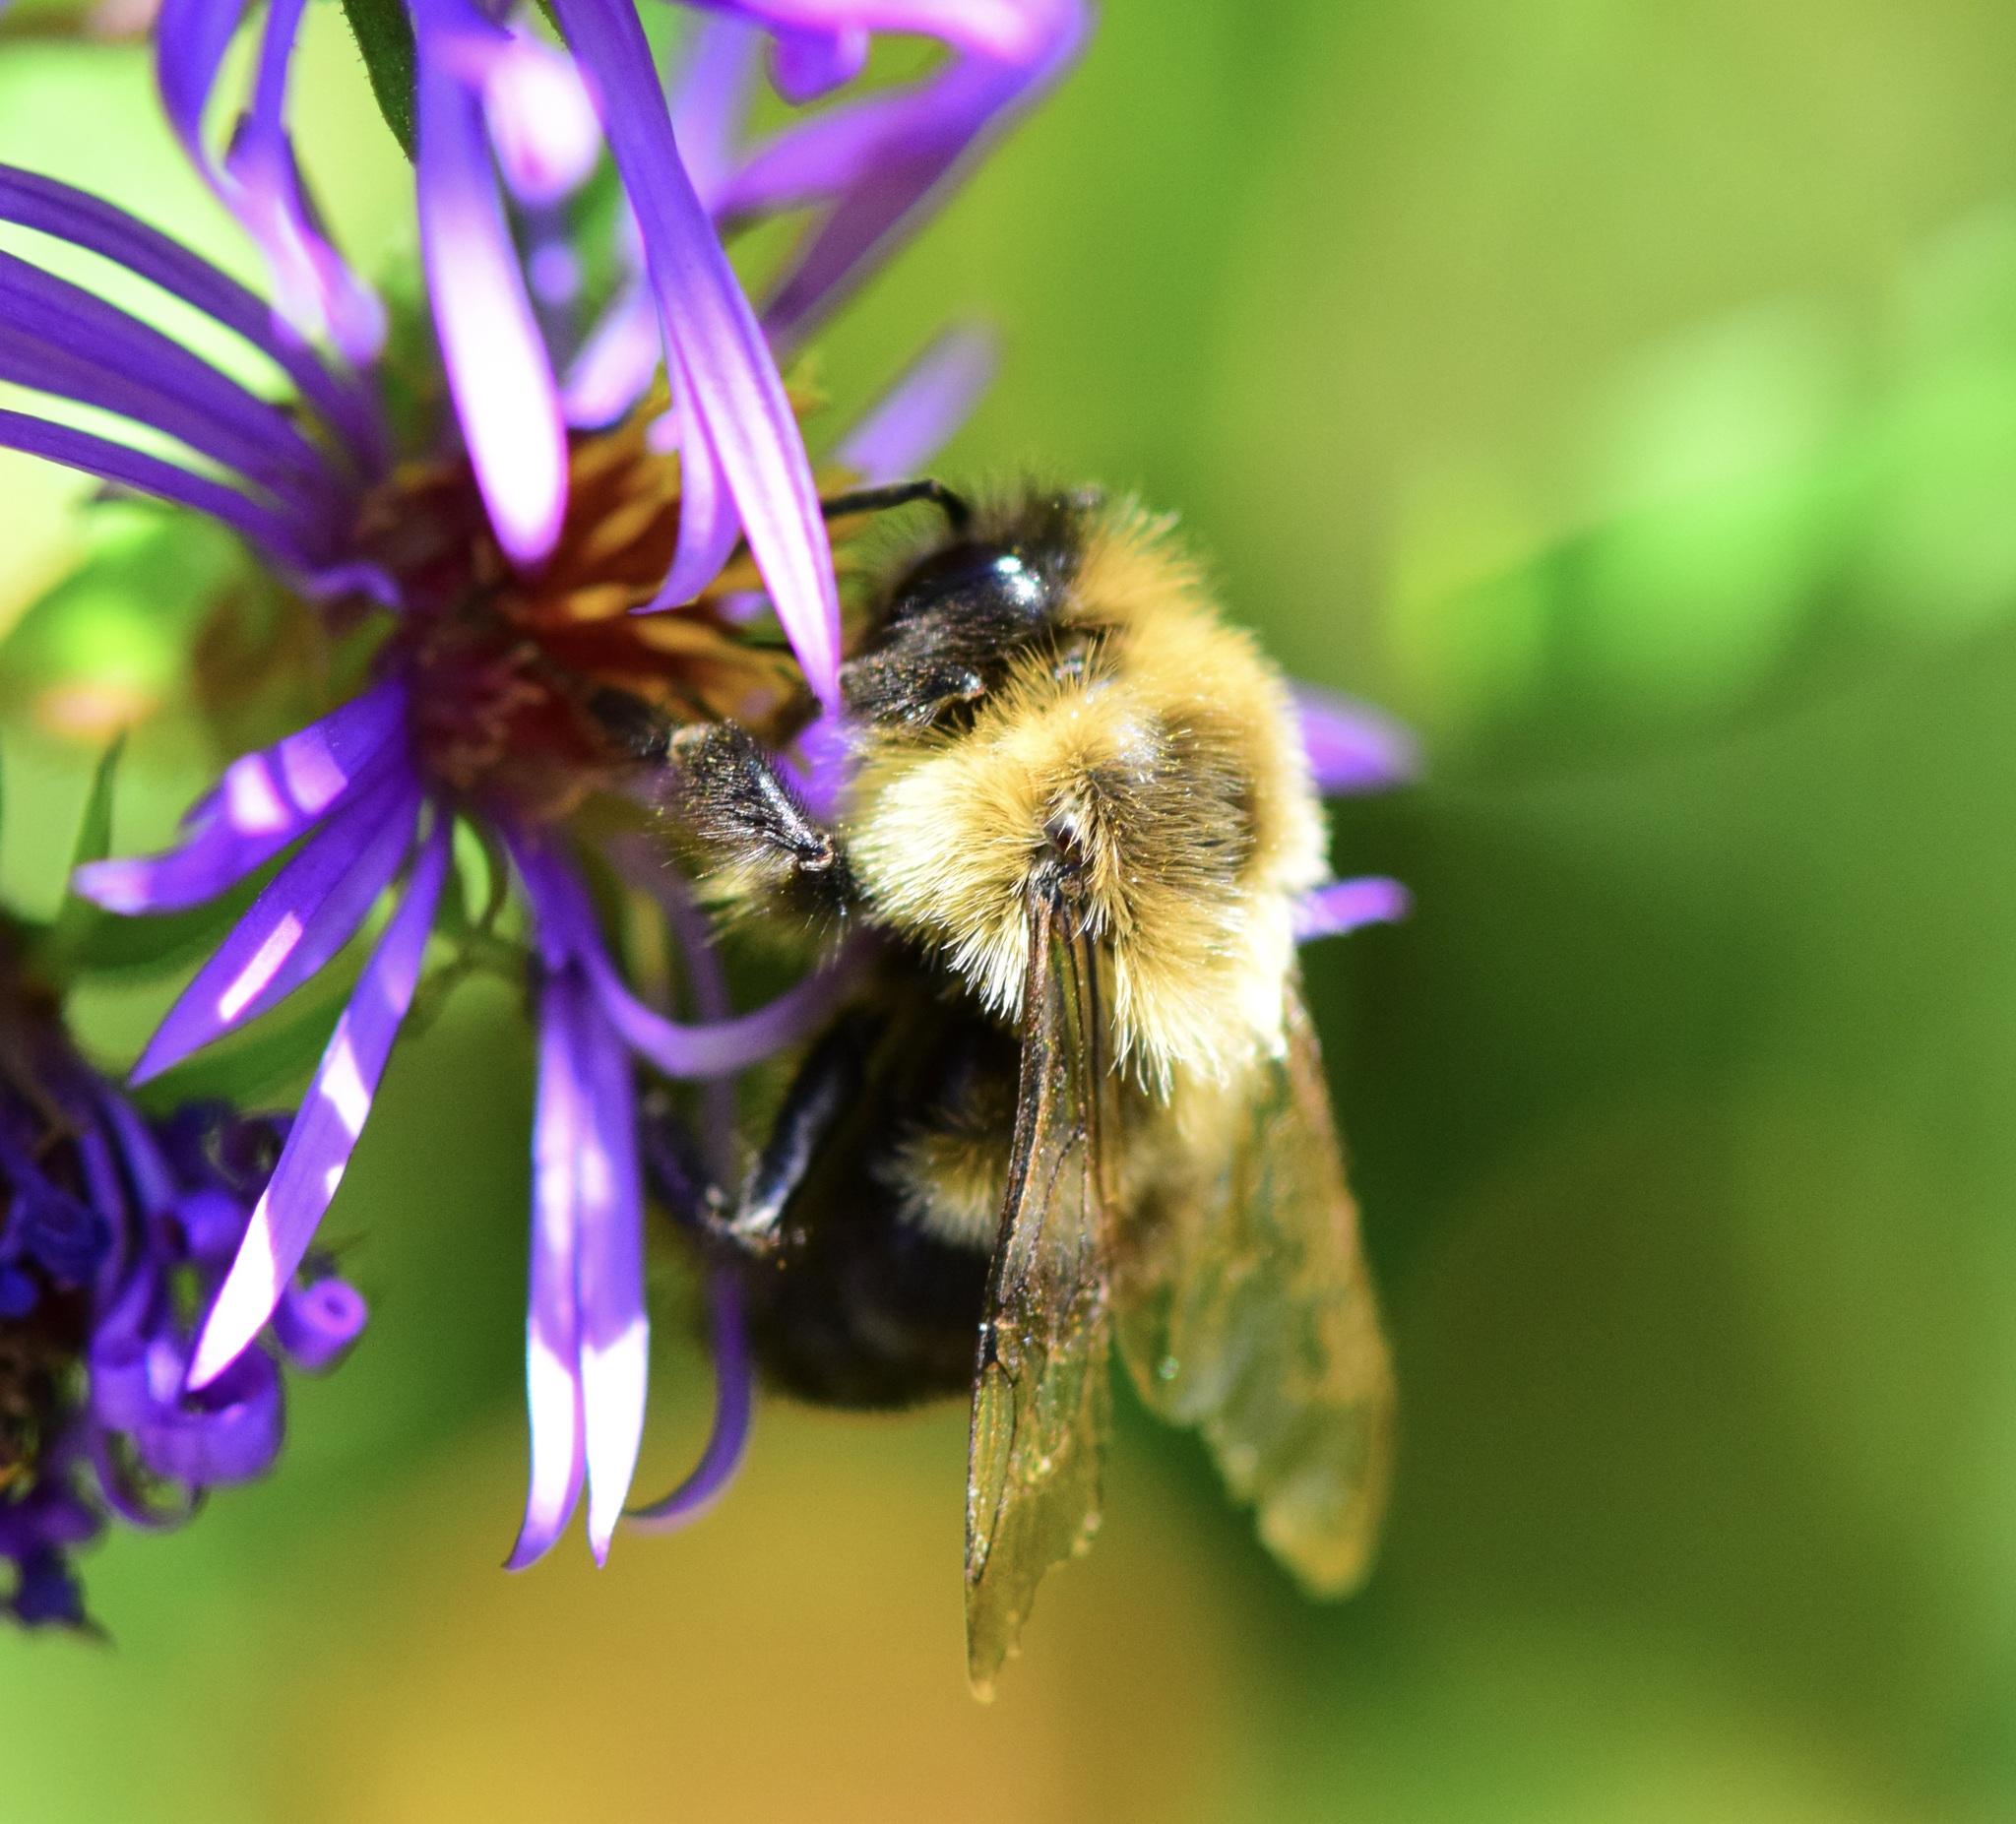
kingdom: Animalia
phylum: Arthropoda
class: Insecta
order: Hymenoptera
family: Apidae
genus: Bombus
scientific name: Bombus impatiens
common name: Common eastern bumble bee
